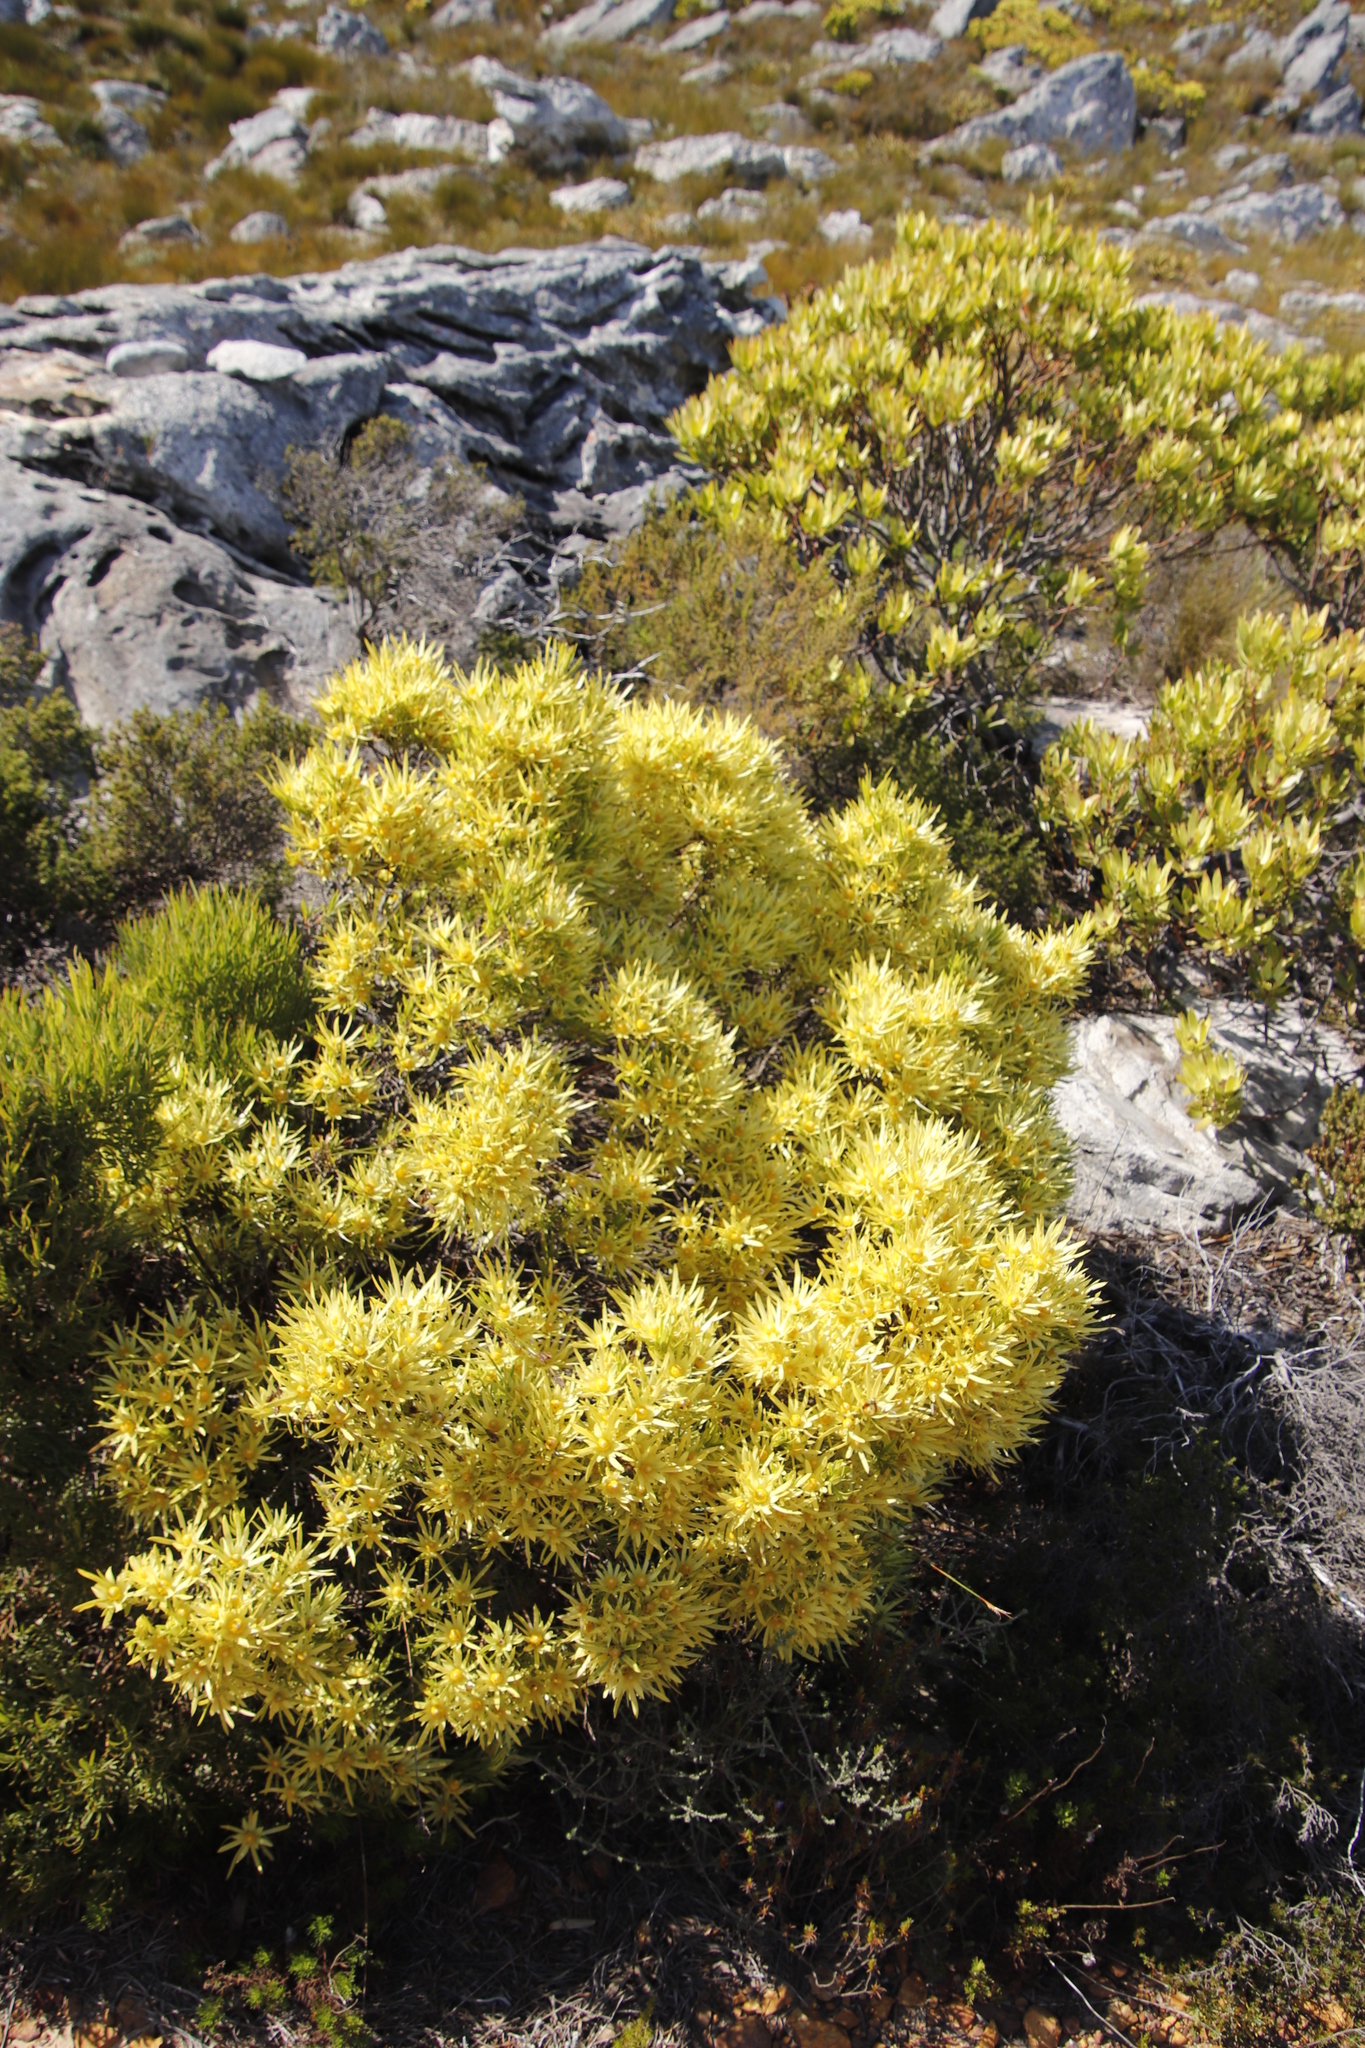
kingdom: Plantae
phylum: Tracheophyta
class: Magnoliopsida
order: Proteales
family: Proteaceae
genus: Leucadendron
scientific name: Leucadendron xanthoconus
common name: Sickle-leaf conebush
